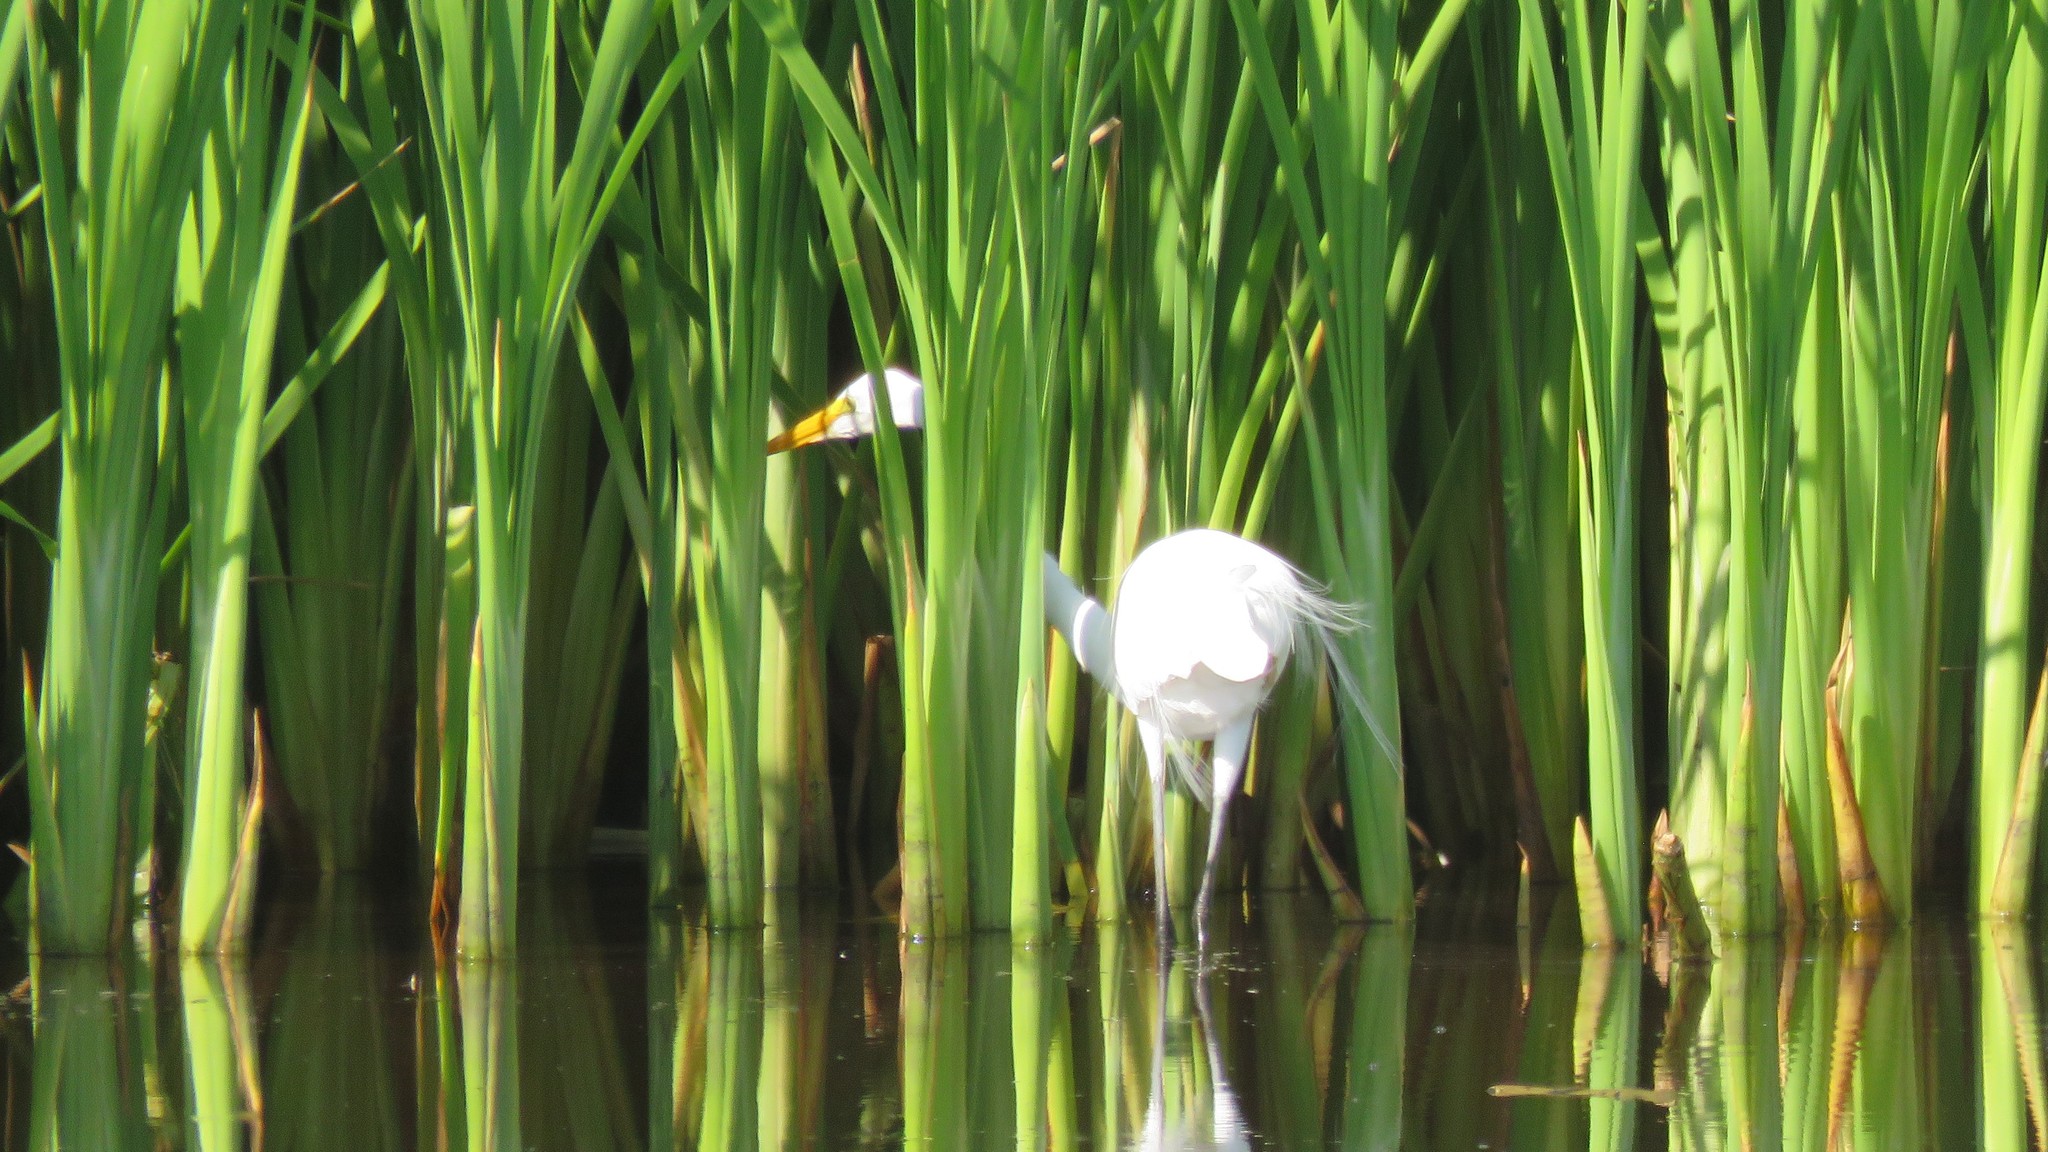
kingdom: Animalia
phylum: Chordata
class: Aves
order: Pelecaniformes
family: Ardeidae
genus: Ardea
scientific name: Ardea alba
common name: Great egret
